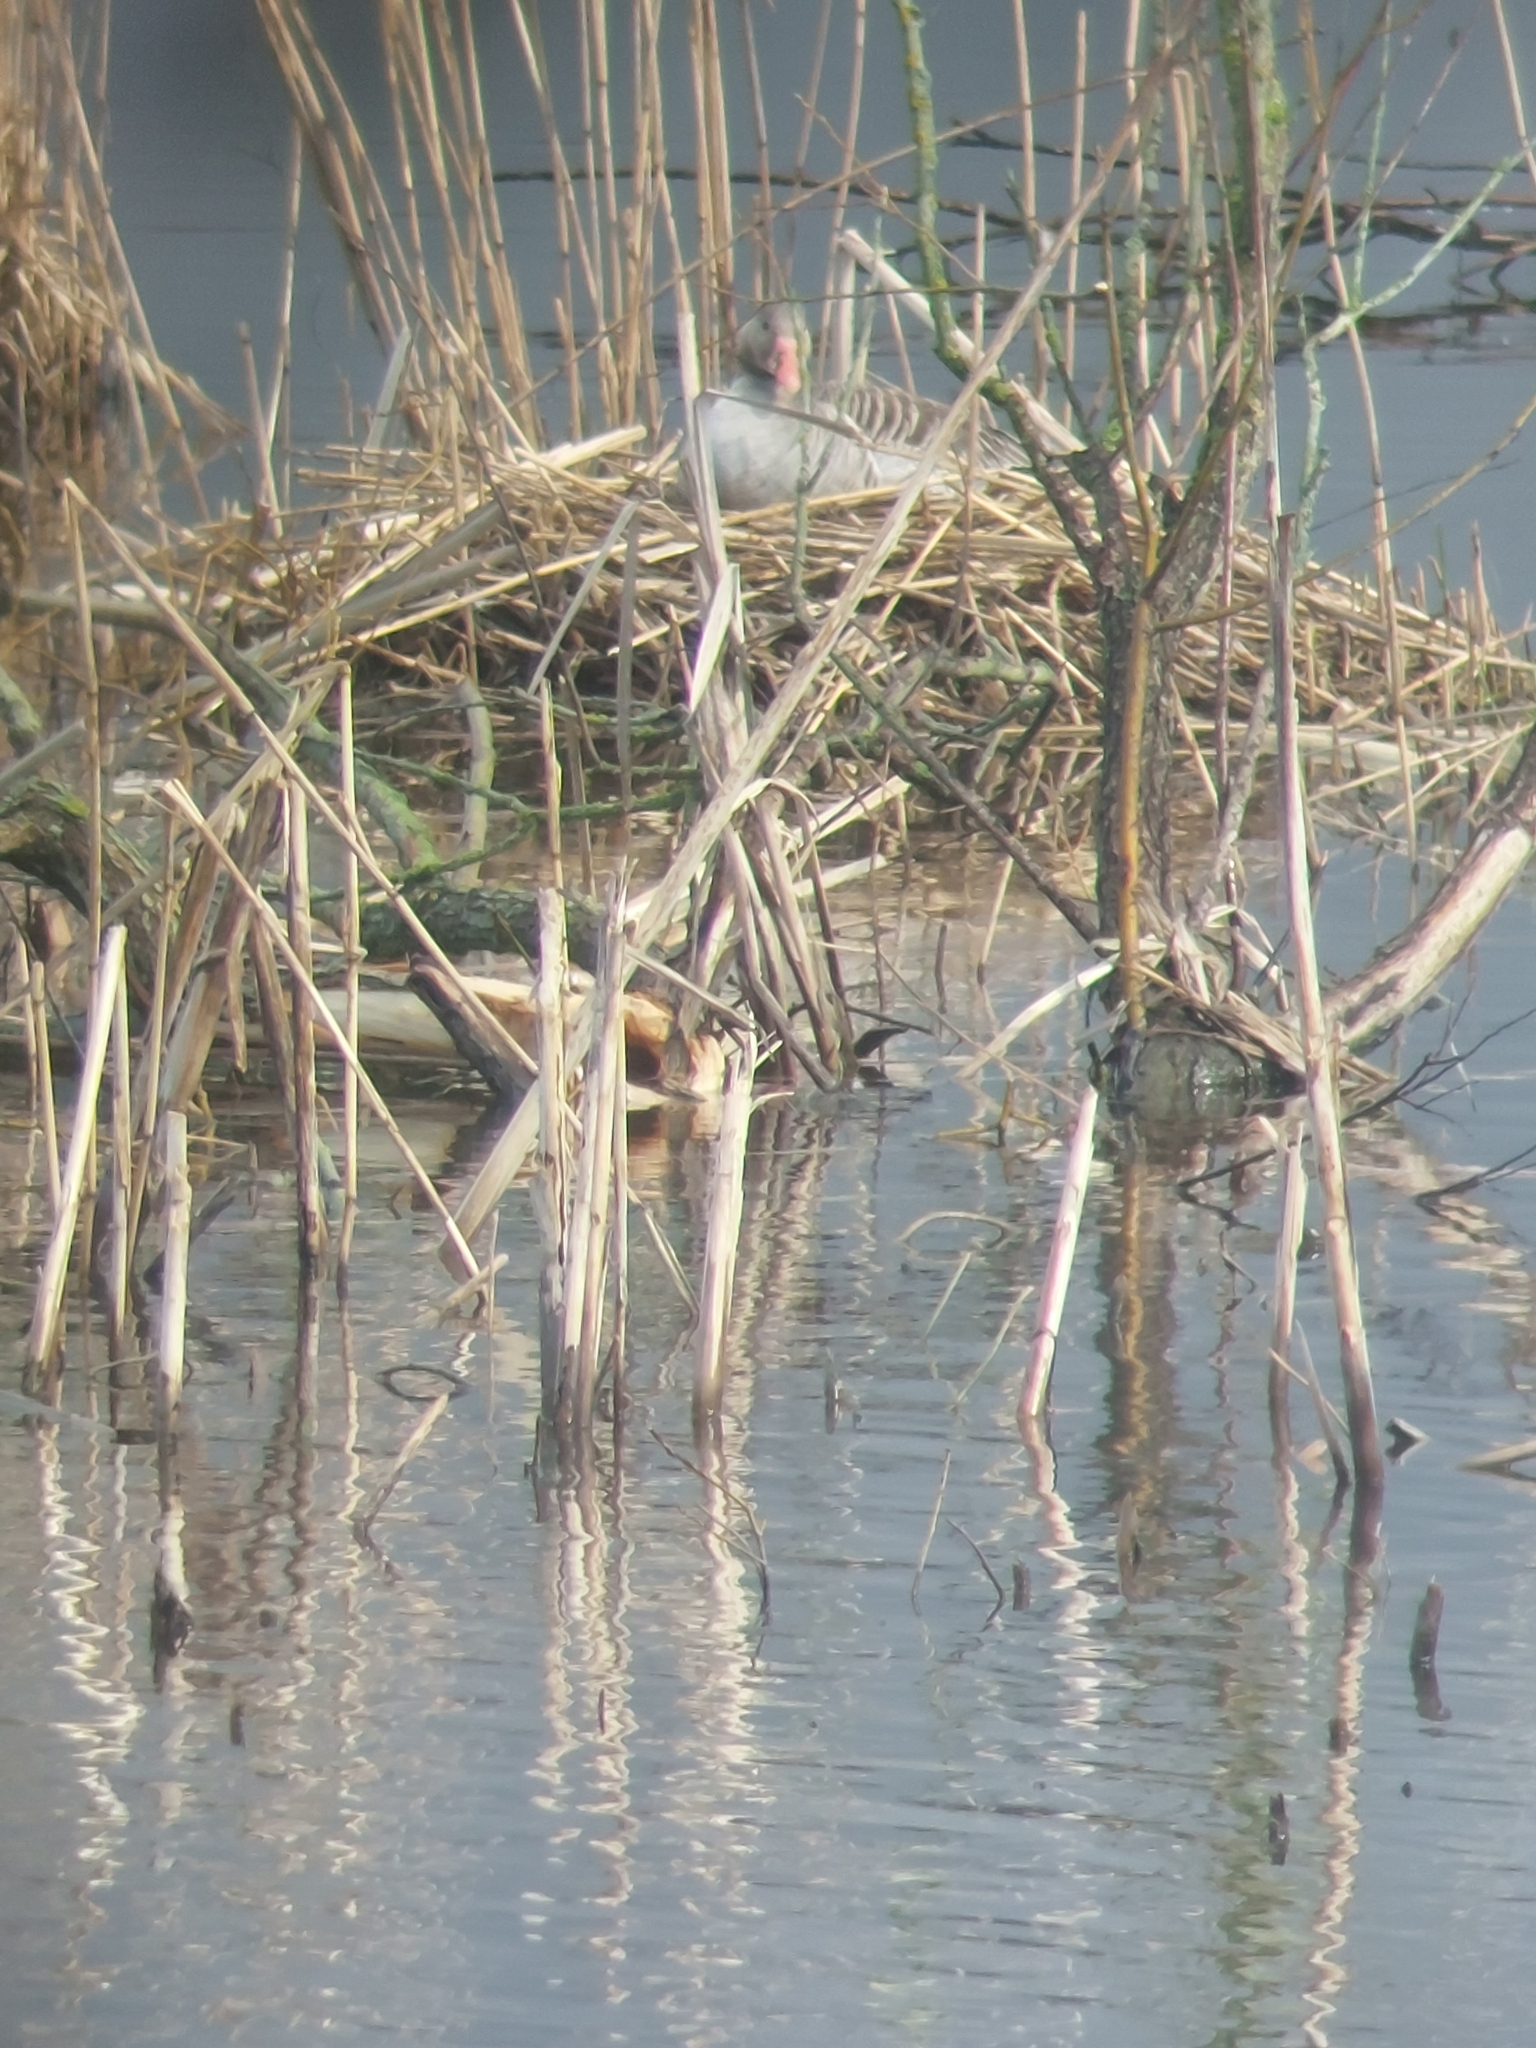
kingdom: Animalia
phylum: Chordata
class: Aves
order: Anseriformes
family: Anatidae
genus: Anser
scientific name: Anser anser
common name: Greylag goose
